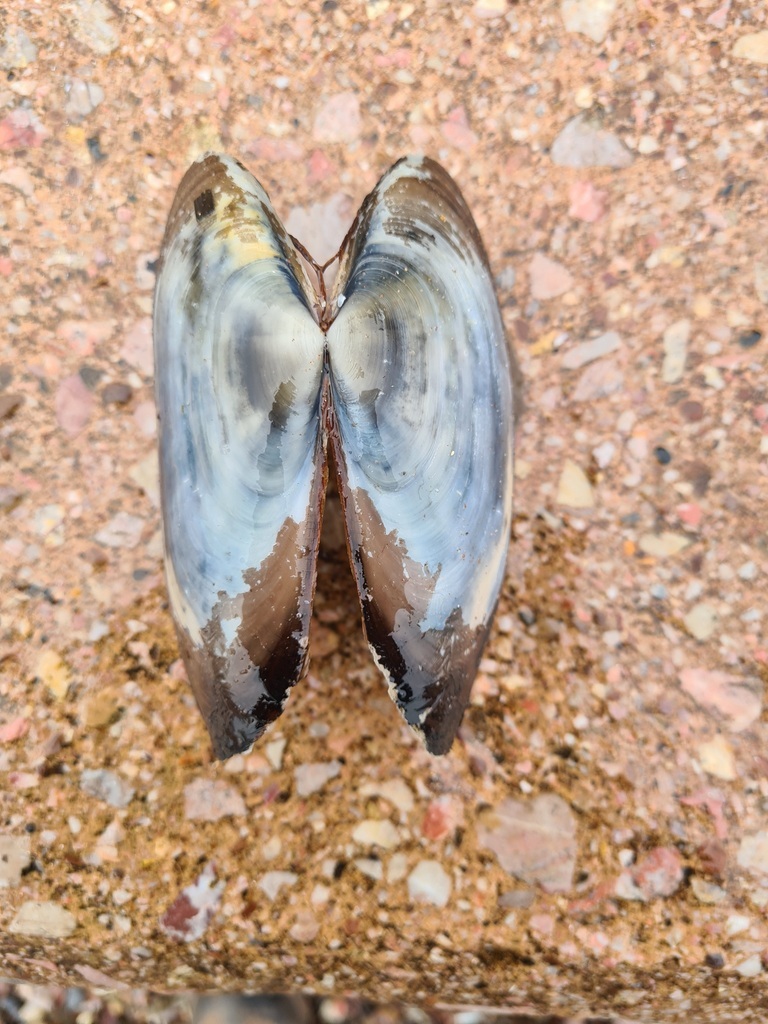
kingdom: Animalia
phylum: Mollusca
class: Bivalvia
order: Venerida
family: Mactridae
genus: Lutraria
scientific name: Lutraria lutraria
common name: Common otter shell
